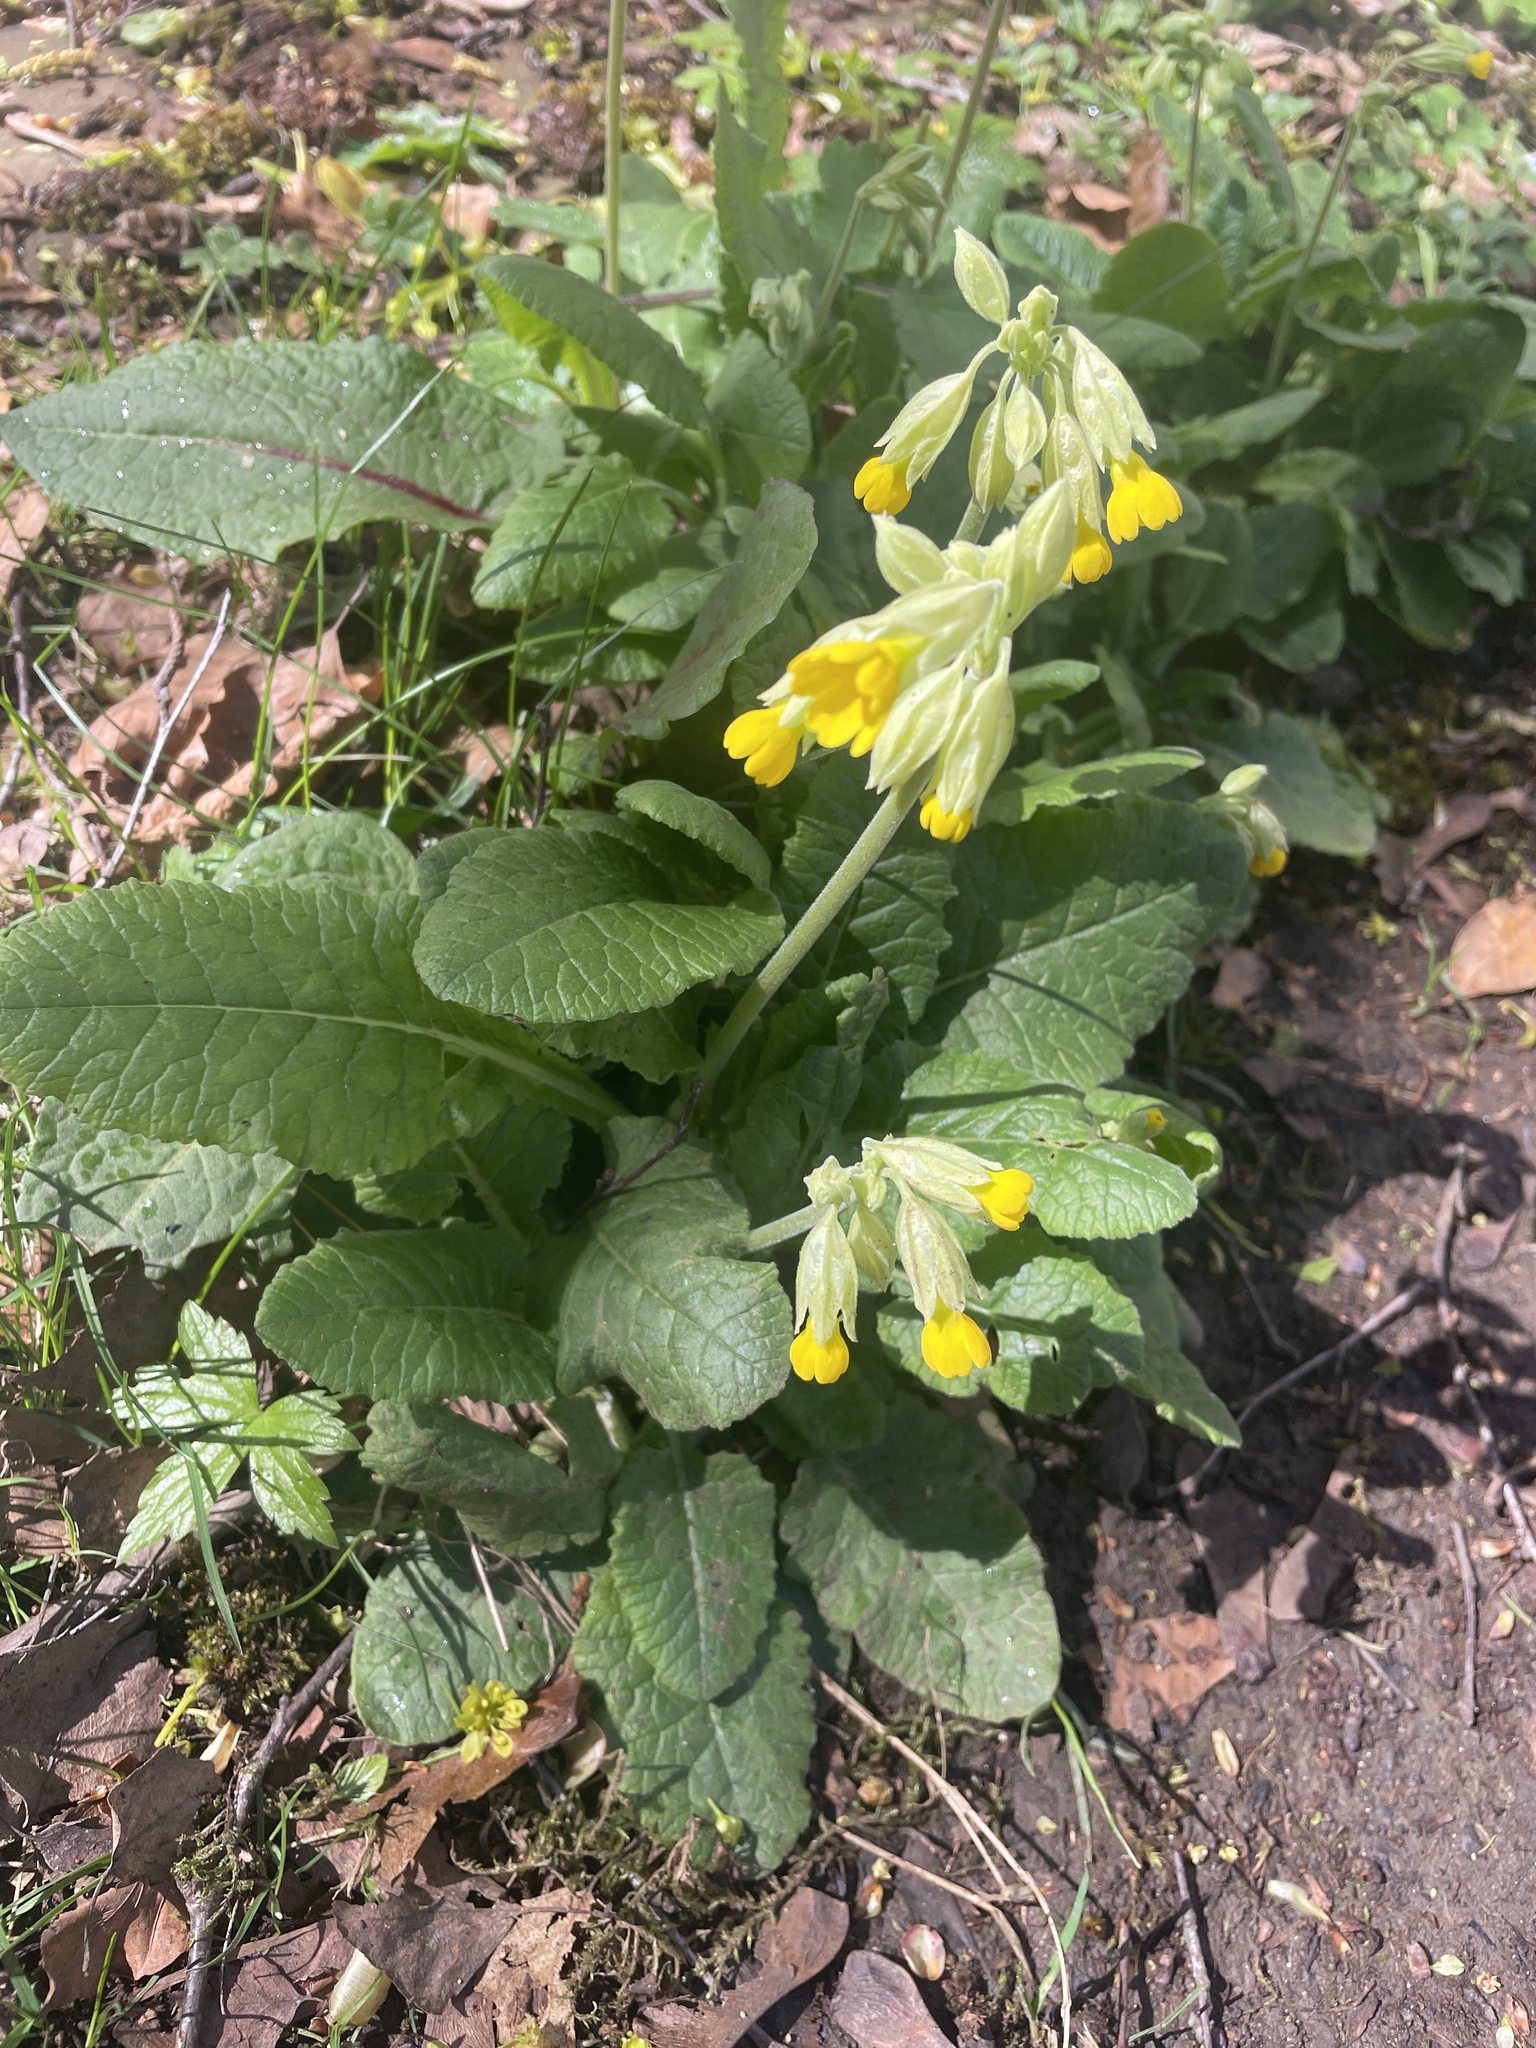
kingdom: Plantae
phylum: Tracheophyta
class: Magnoliopsida
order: Ericales
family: Primulaceae
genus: Primula
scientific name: Primula veris
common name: Cowslip
